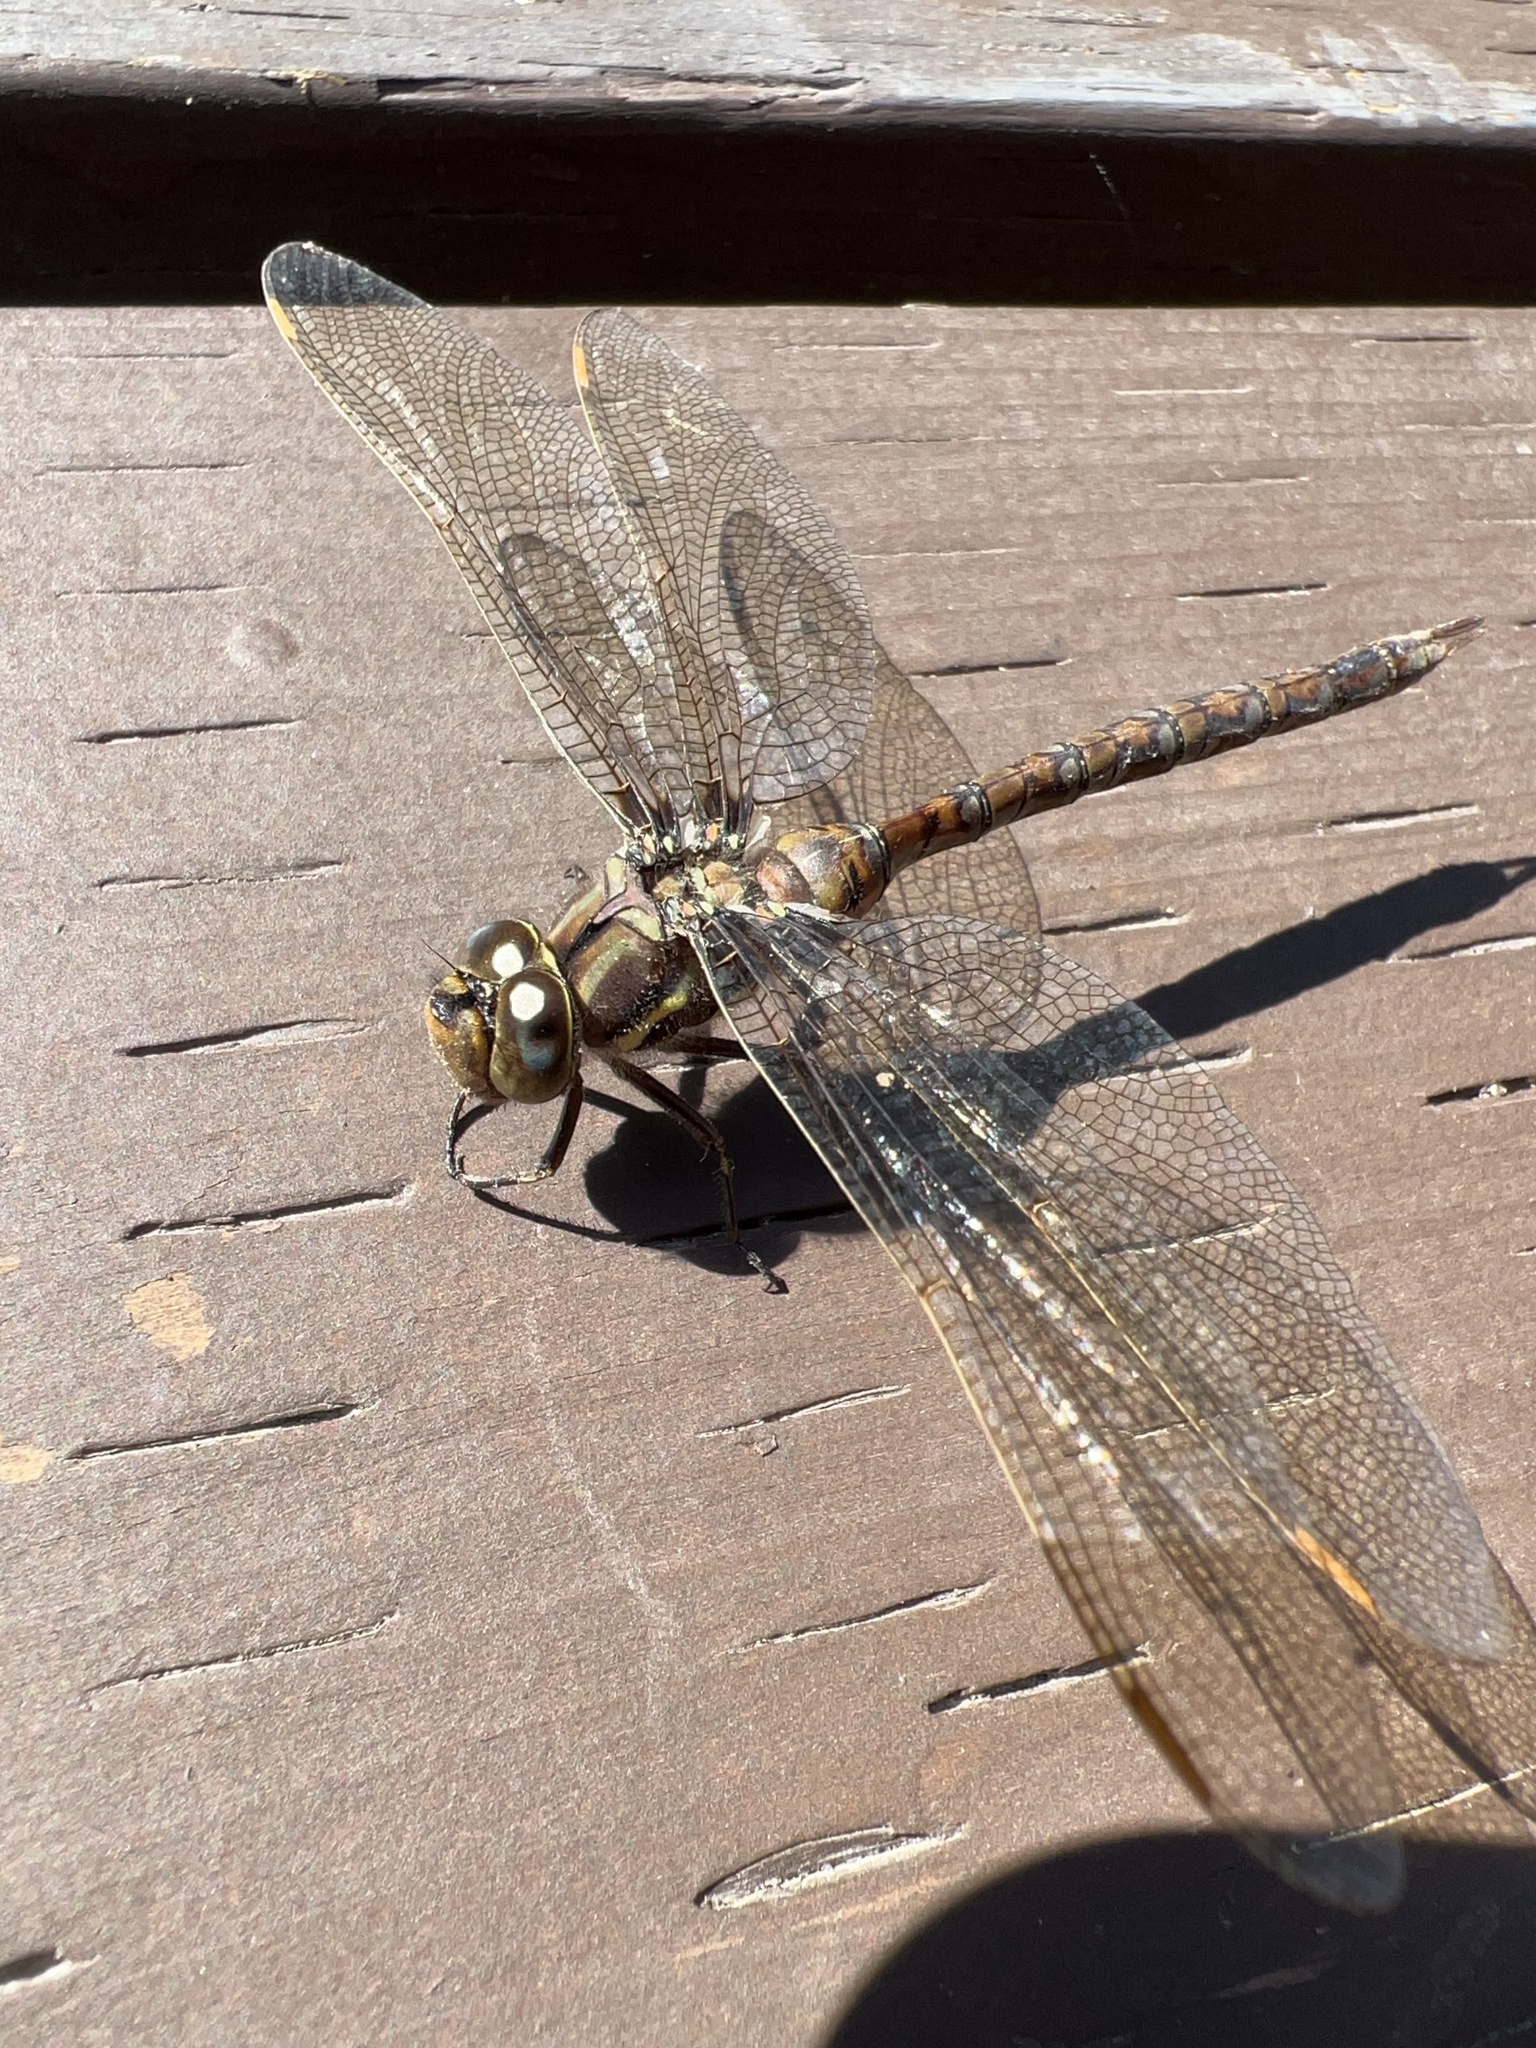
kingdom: Animalia
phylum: Arthropoda
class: Insecta
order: Odonata
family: Aeshnidae
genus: Basiaeschna
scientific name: Basiaeschna janata
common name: Springtime darner
